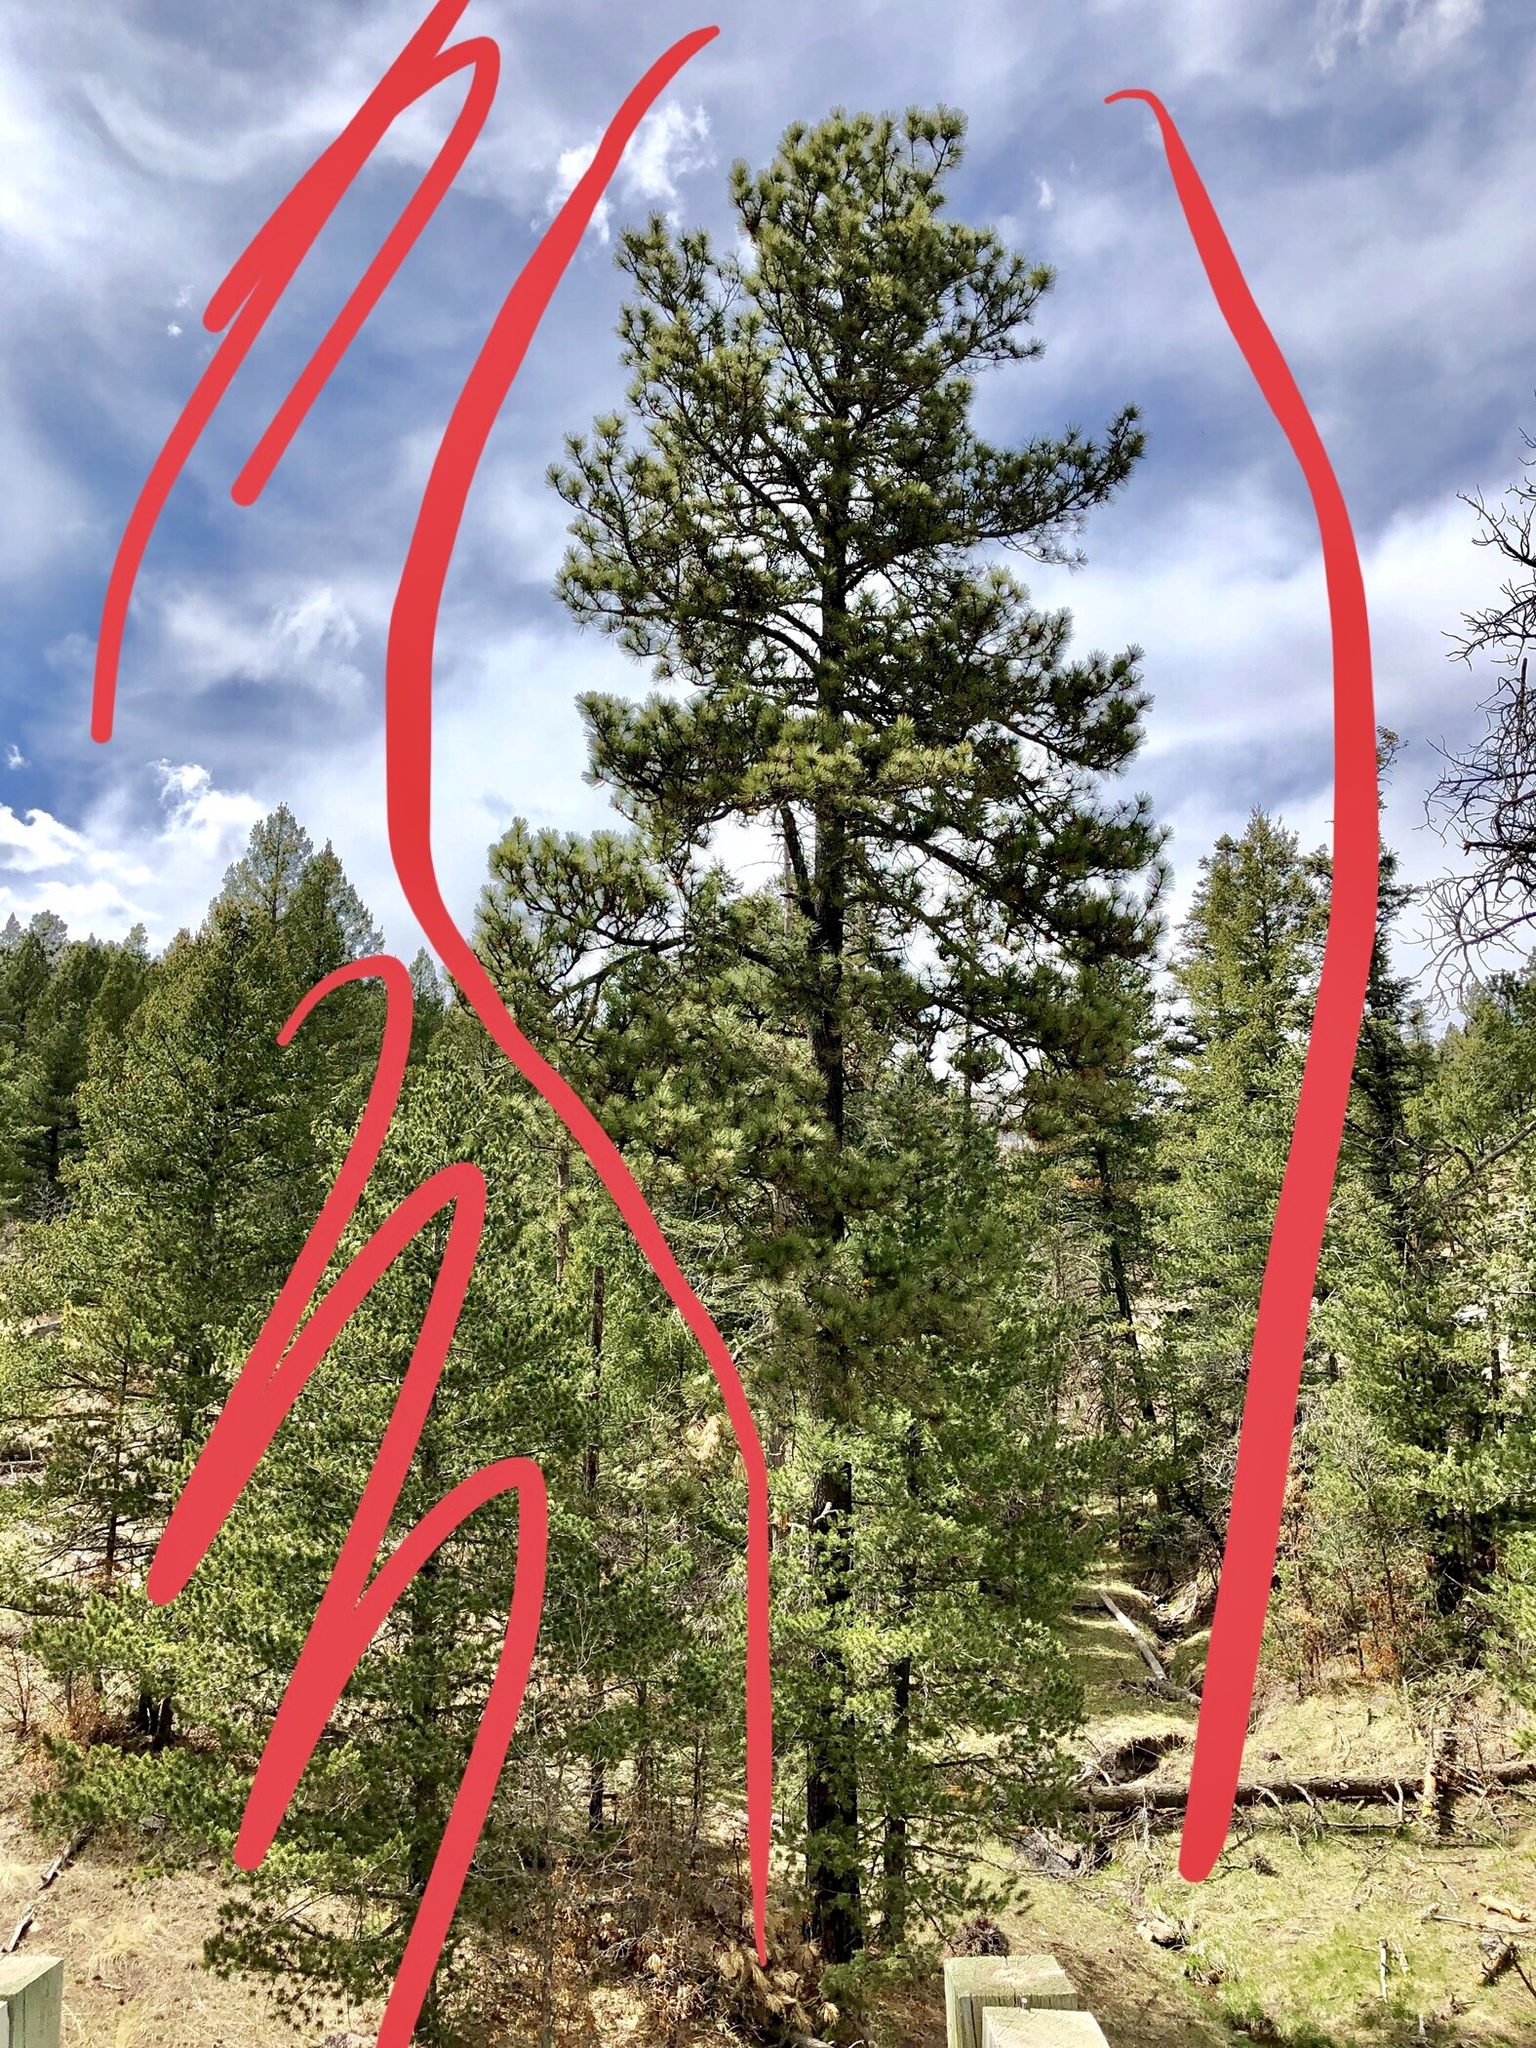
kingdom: Plantae
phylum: Tracheophyta
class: Pinopsida
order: Pinales
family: Pinaceae
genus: Pinus
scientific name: Pinus ponderosa
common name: Western yellow-pine
